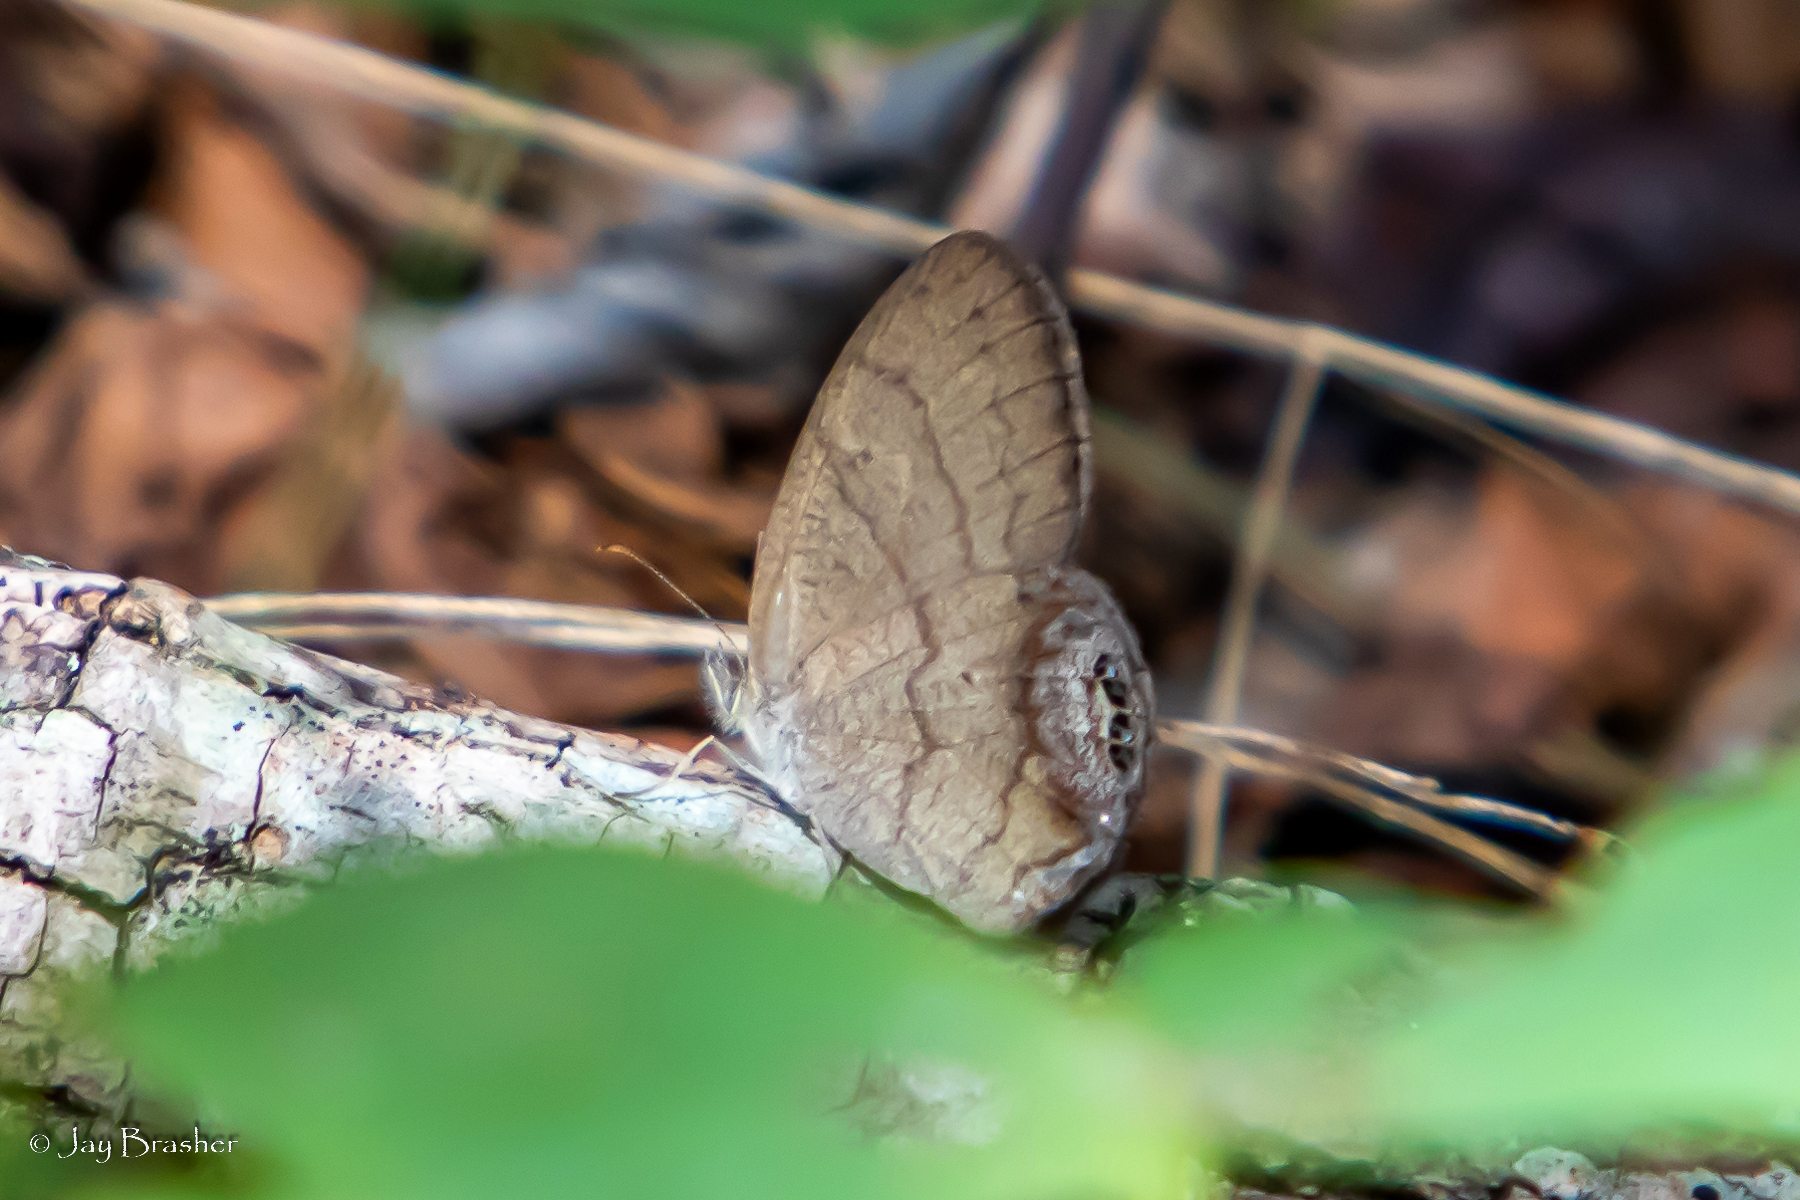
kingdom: Animalia
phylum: Arthropoda
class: Insecta
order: Lepidoptera
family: Nymphalidae
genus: Euptychia
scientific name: Euptychia cornelius
